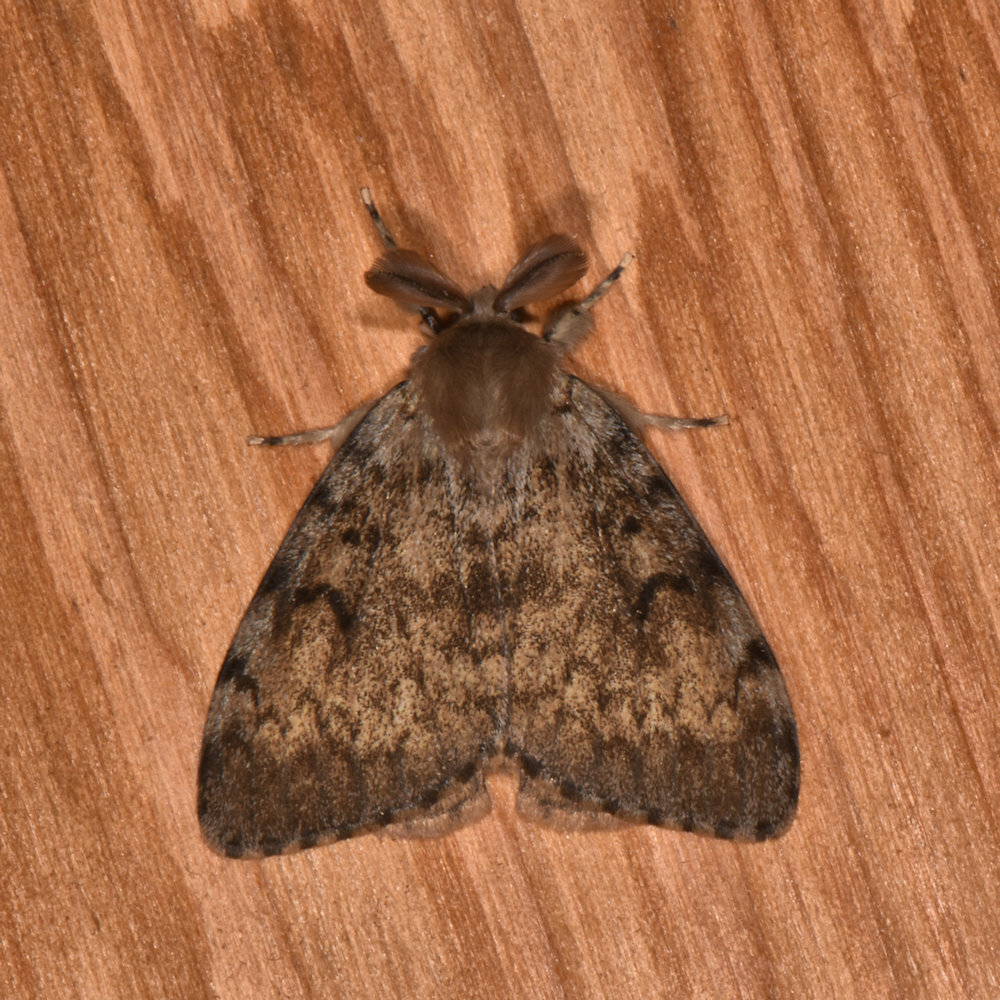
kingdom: Animalia
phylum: Arthropoda
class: Insecta
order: Lepidoptera
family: Erebidae
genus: Lymantria
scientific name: Lymantria dispar
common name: Gypsy moth
